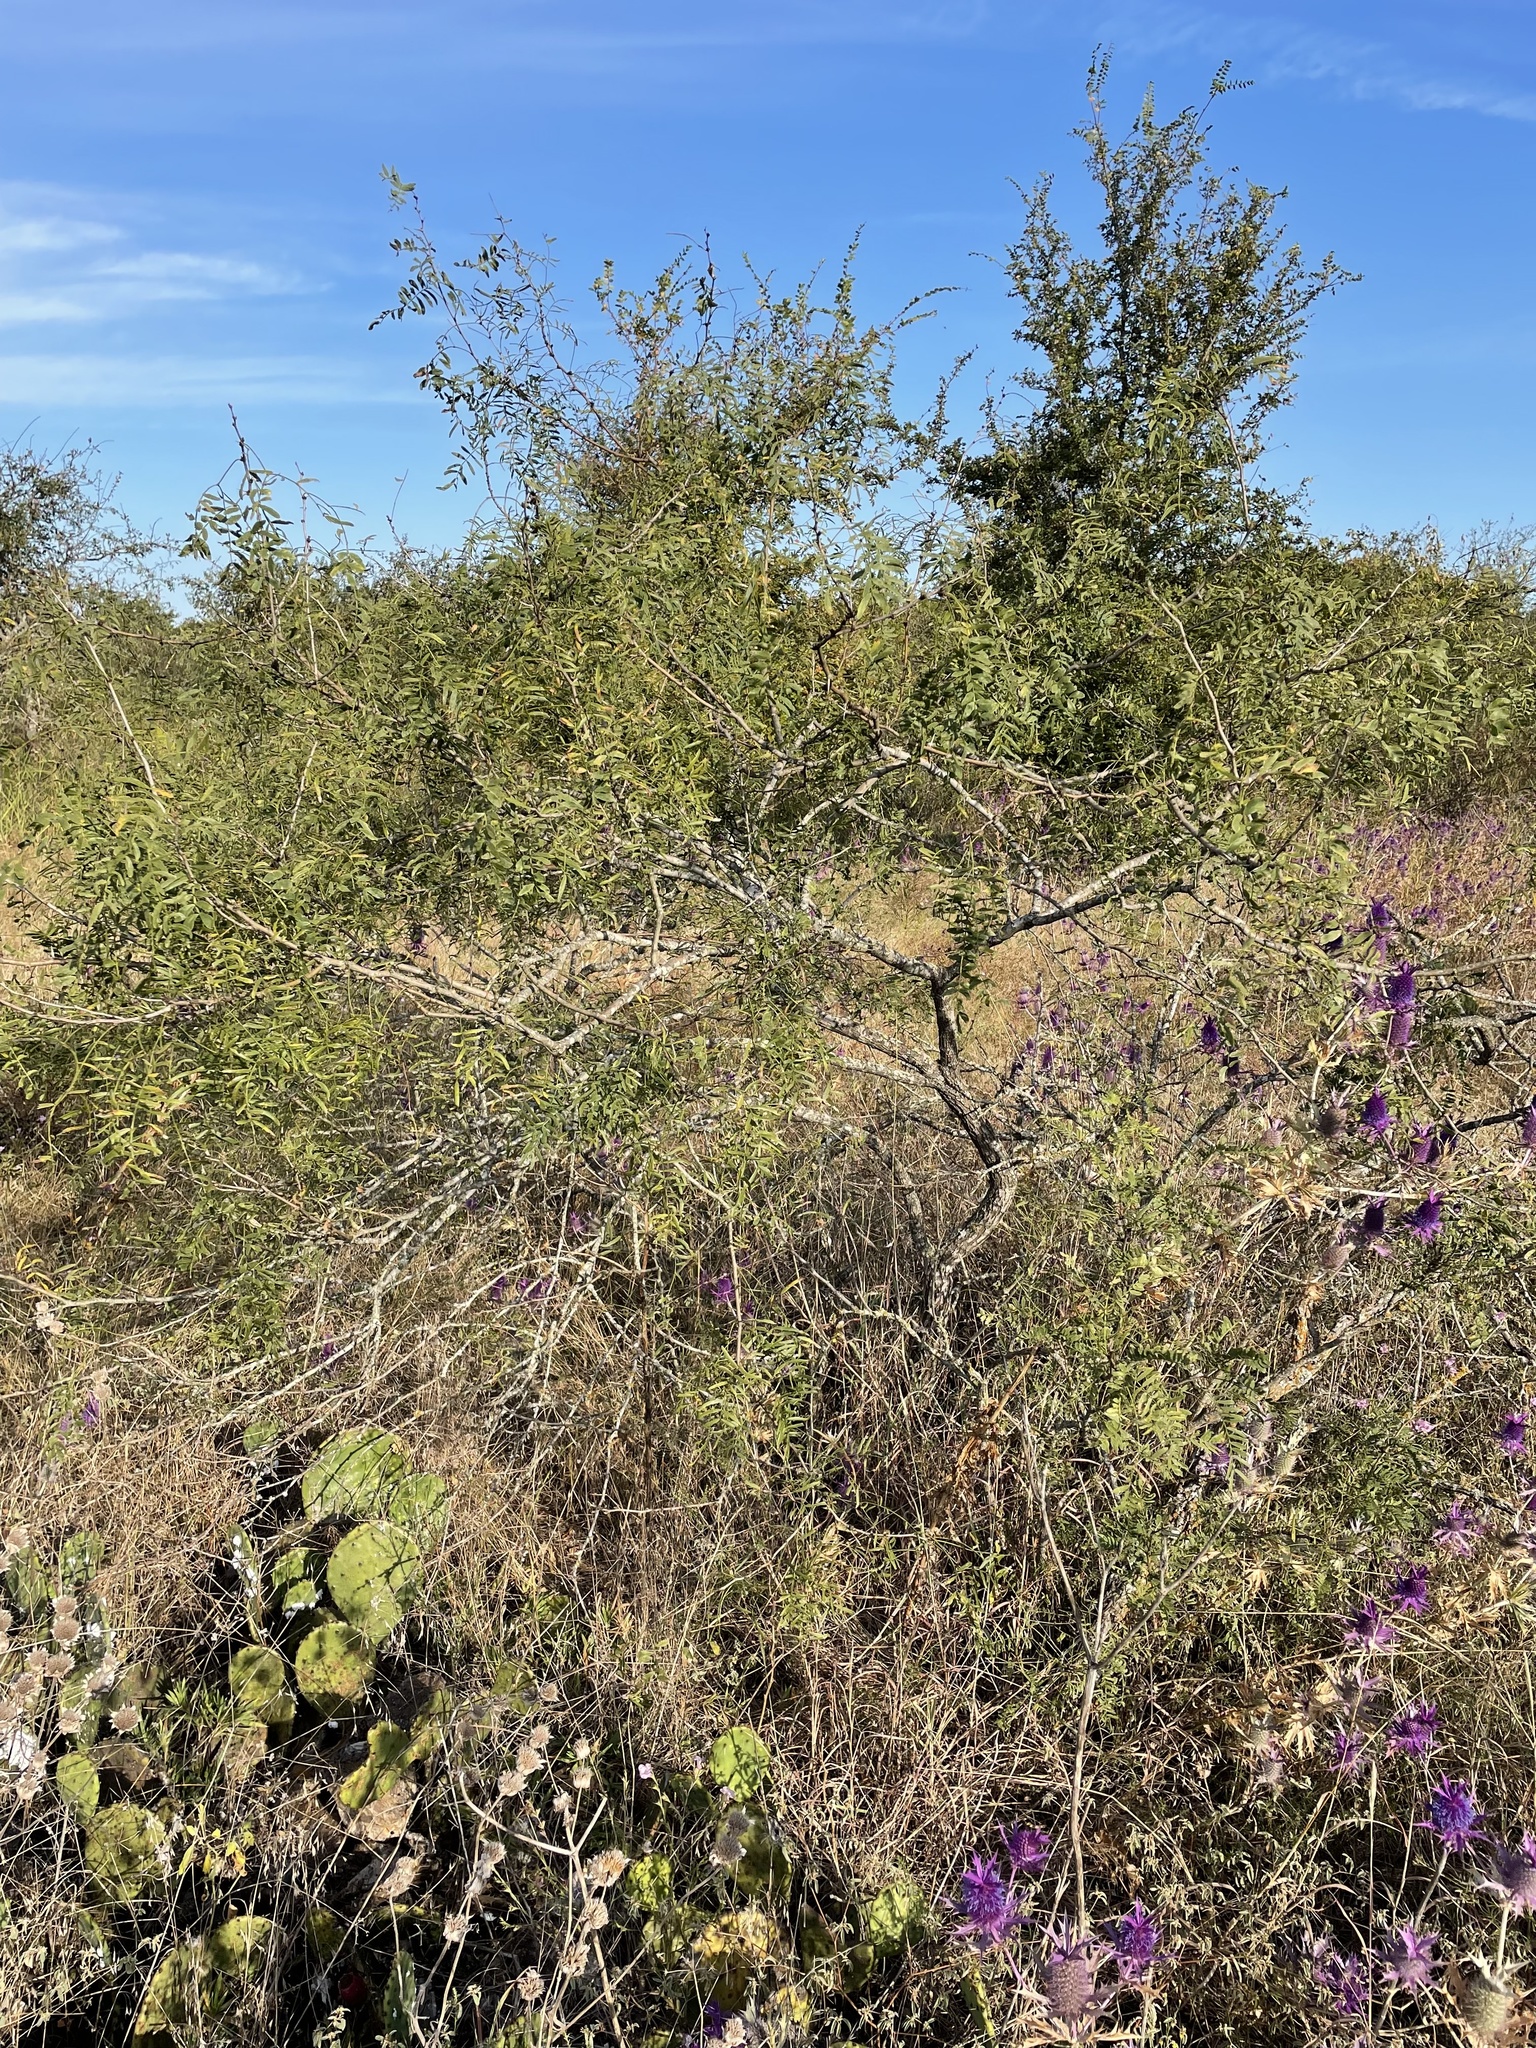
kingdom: Plantae
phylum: Tracheophyta
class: Magnoliopsida
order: Fabales
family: Fabaceae
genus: Prosopis
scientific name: Prosopis glandulosa
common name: Honey mesquite
